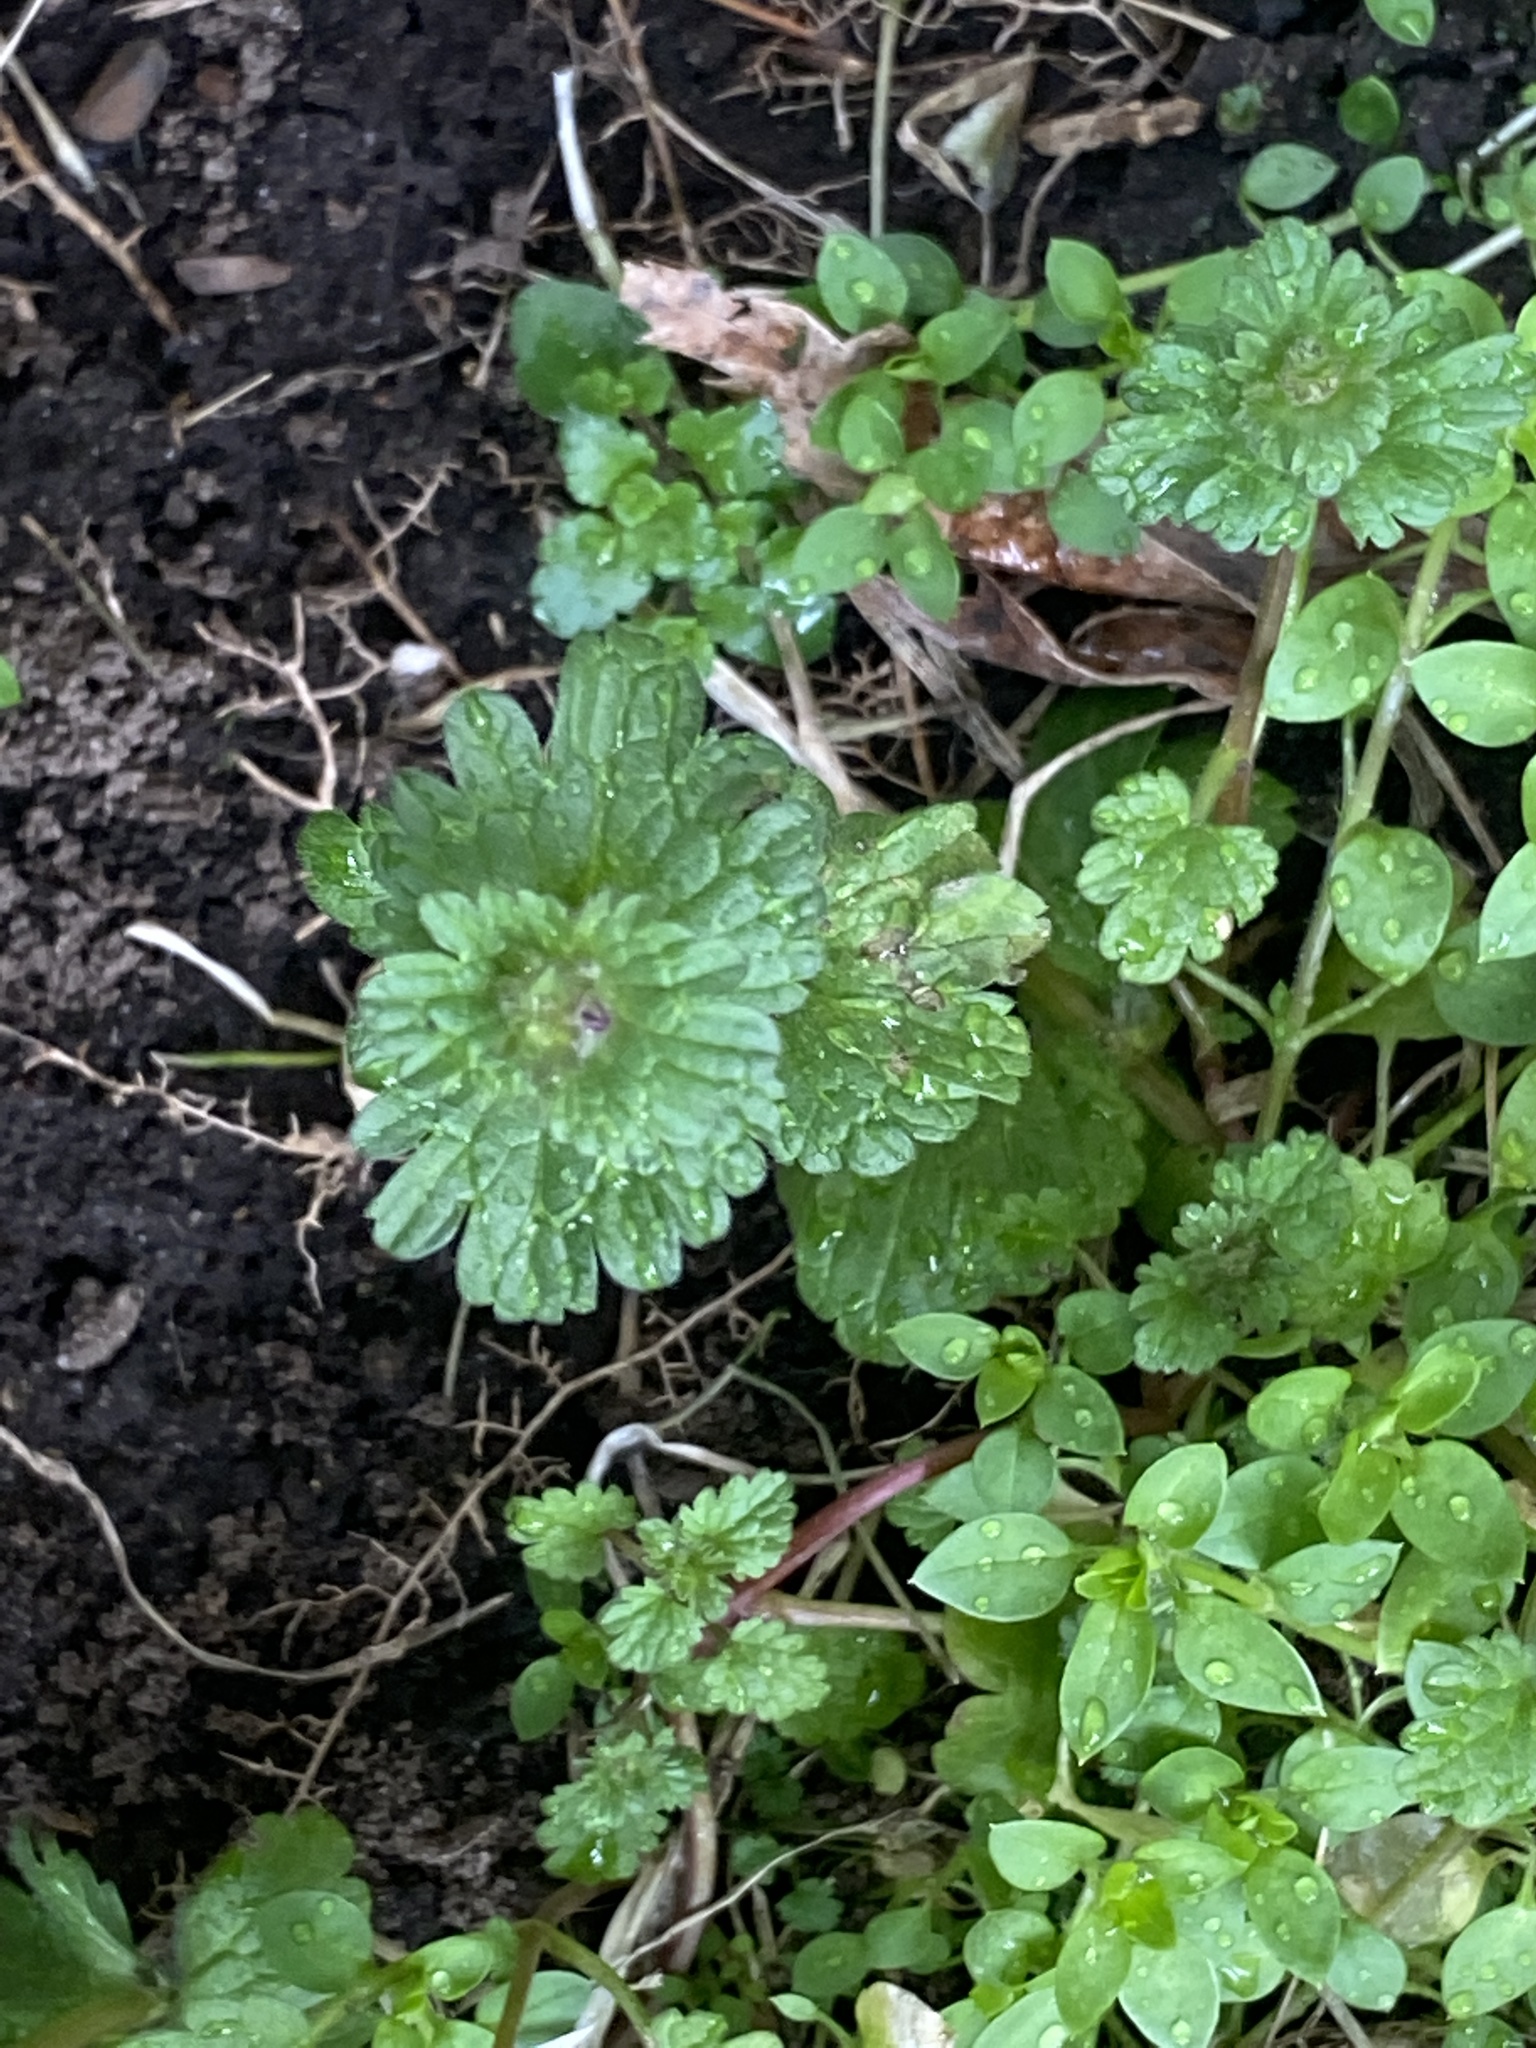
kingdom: Plantae
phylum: Tracheophyta
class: Magnoliopsida
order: Lamiales
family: Lamiaceae
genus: Lamium
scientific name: Lamium amplexicaule
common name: Henbit dead-nettle
